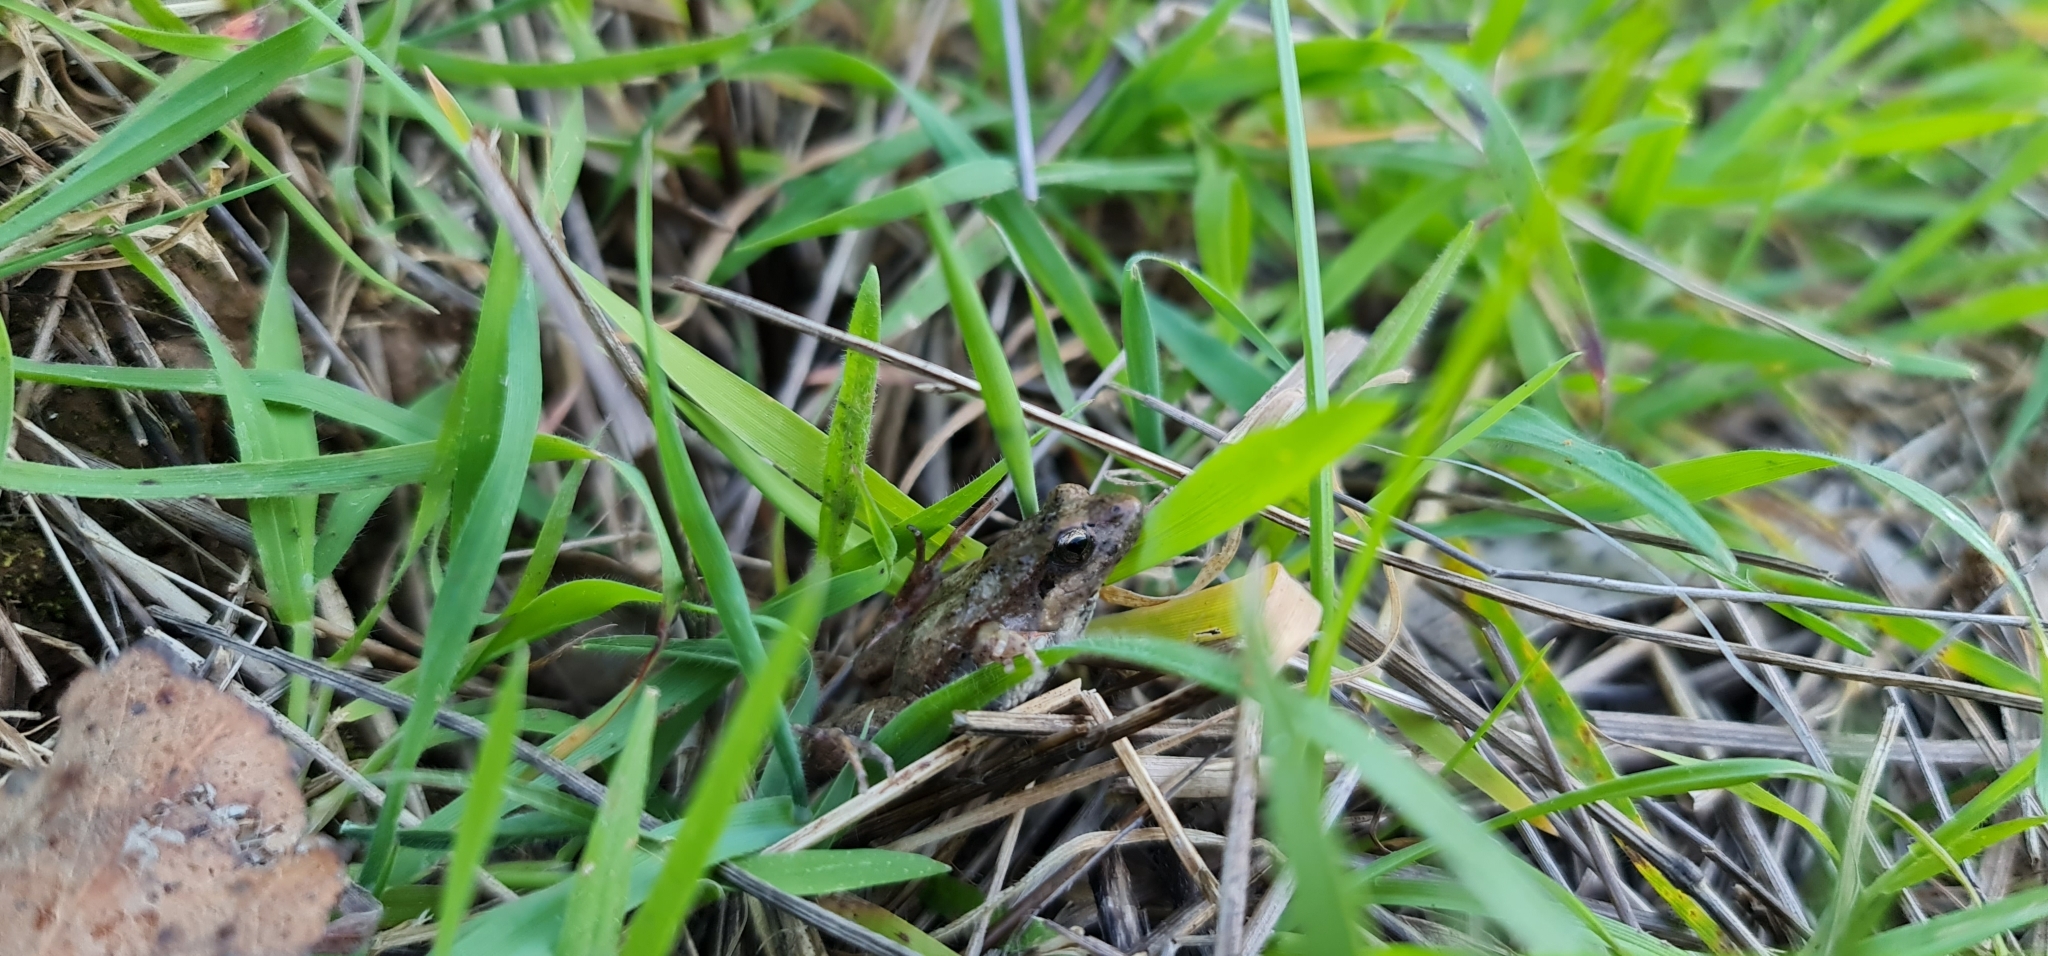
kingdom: Animalia
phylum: Chordata
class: Amphibia
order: Anura
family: Myobatrachidae
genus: Crinia
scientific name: Crinia signifera
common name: Brown froglet
